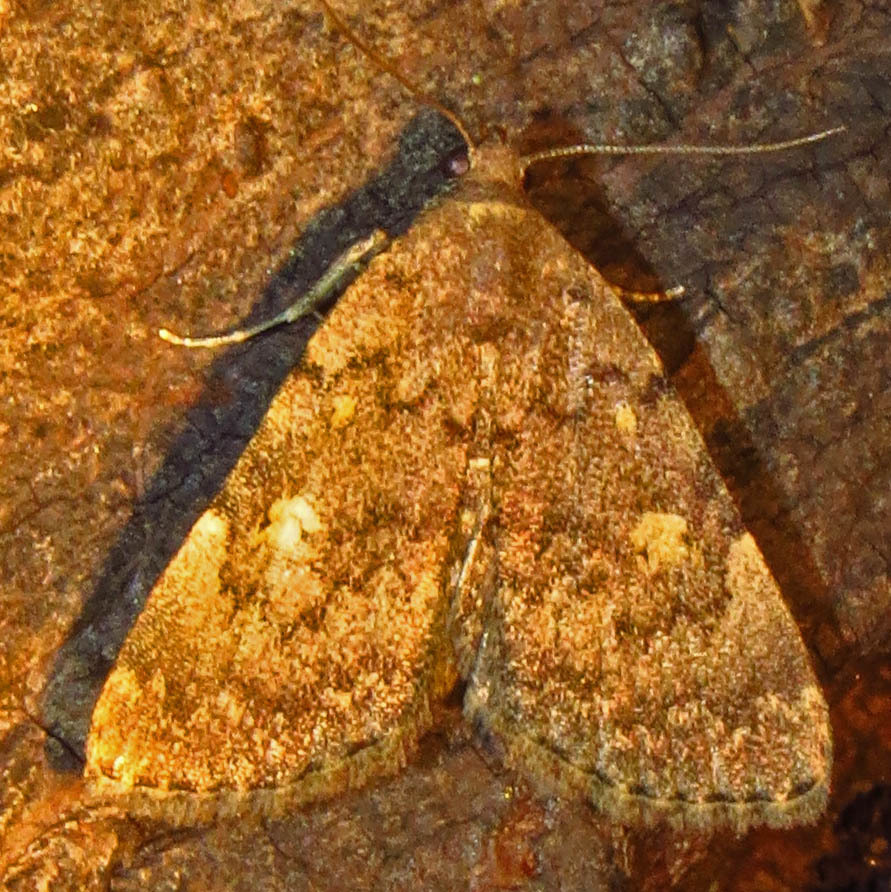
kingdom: Animalia
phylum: Arthropoda
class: Insecta
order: Lepidoptera
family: Erebidae
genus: Idia
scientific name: Idia aemula
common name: Common idia moth
